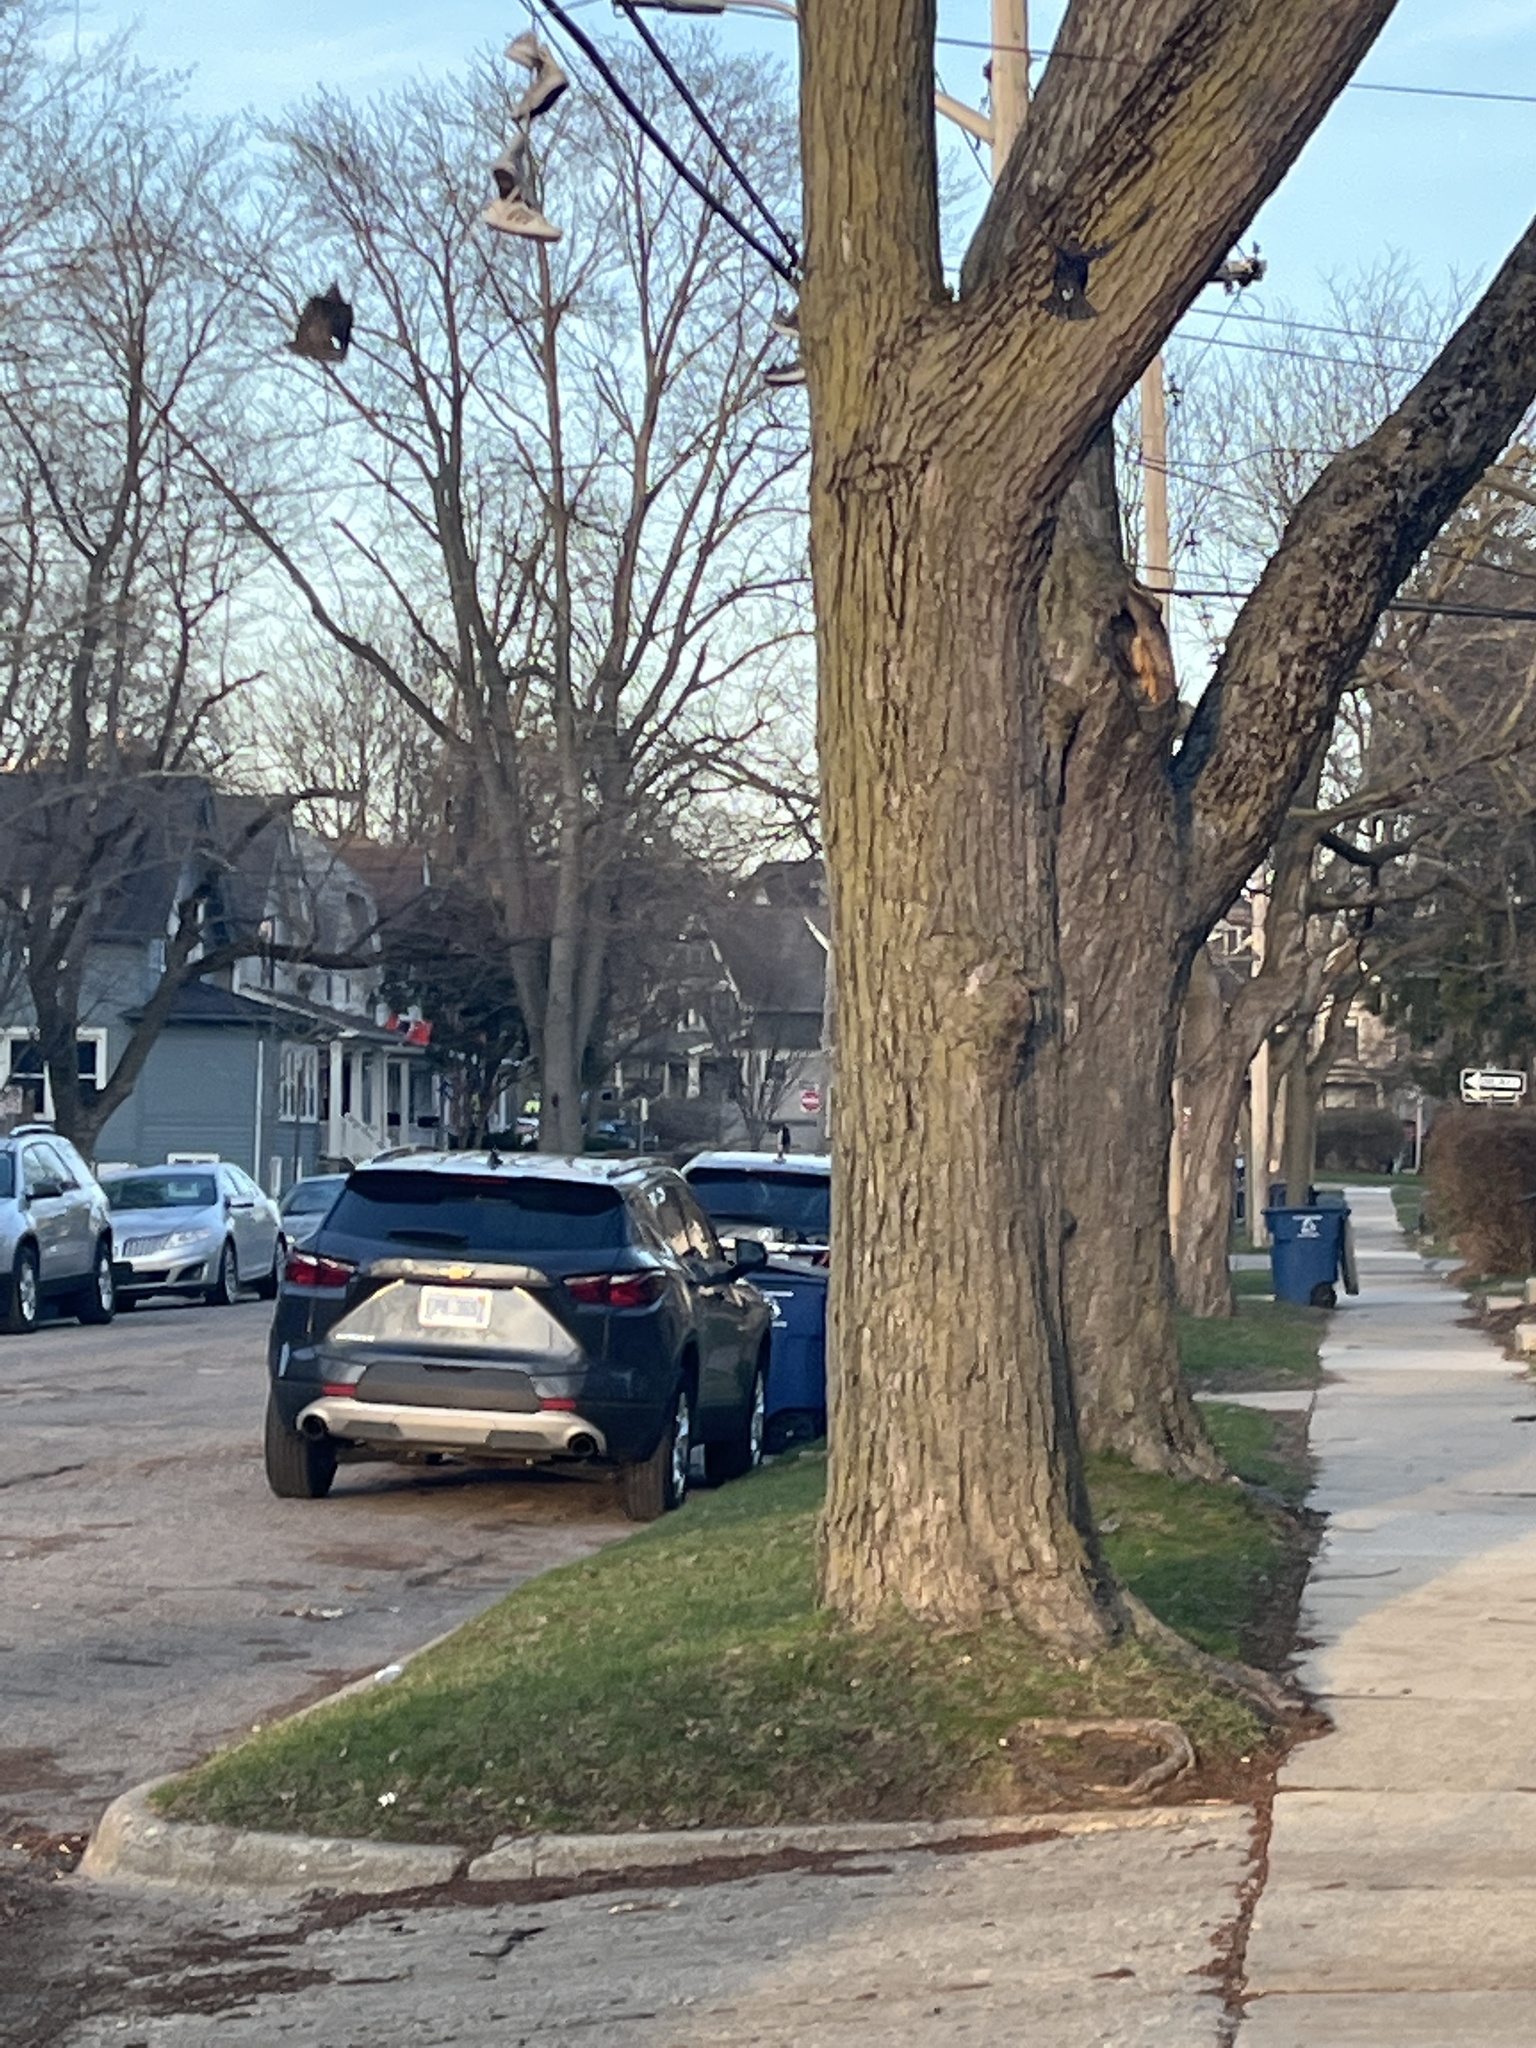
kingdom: Animalia
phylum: Chordata
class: Aves
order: Passeriformes
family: Sturnidae
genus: Sturnus
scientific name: Sturnus vulgaris
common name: Common starling
